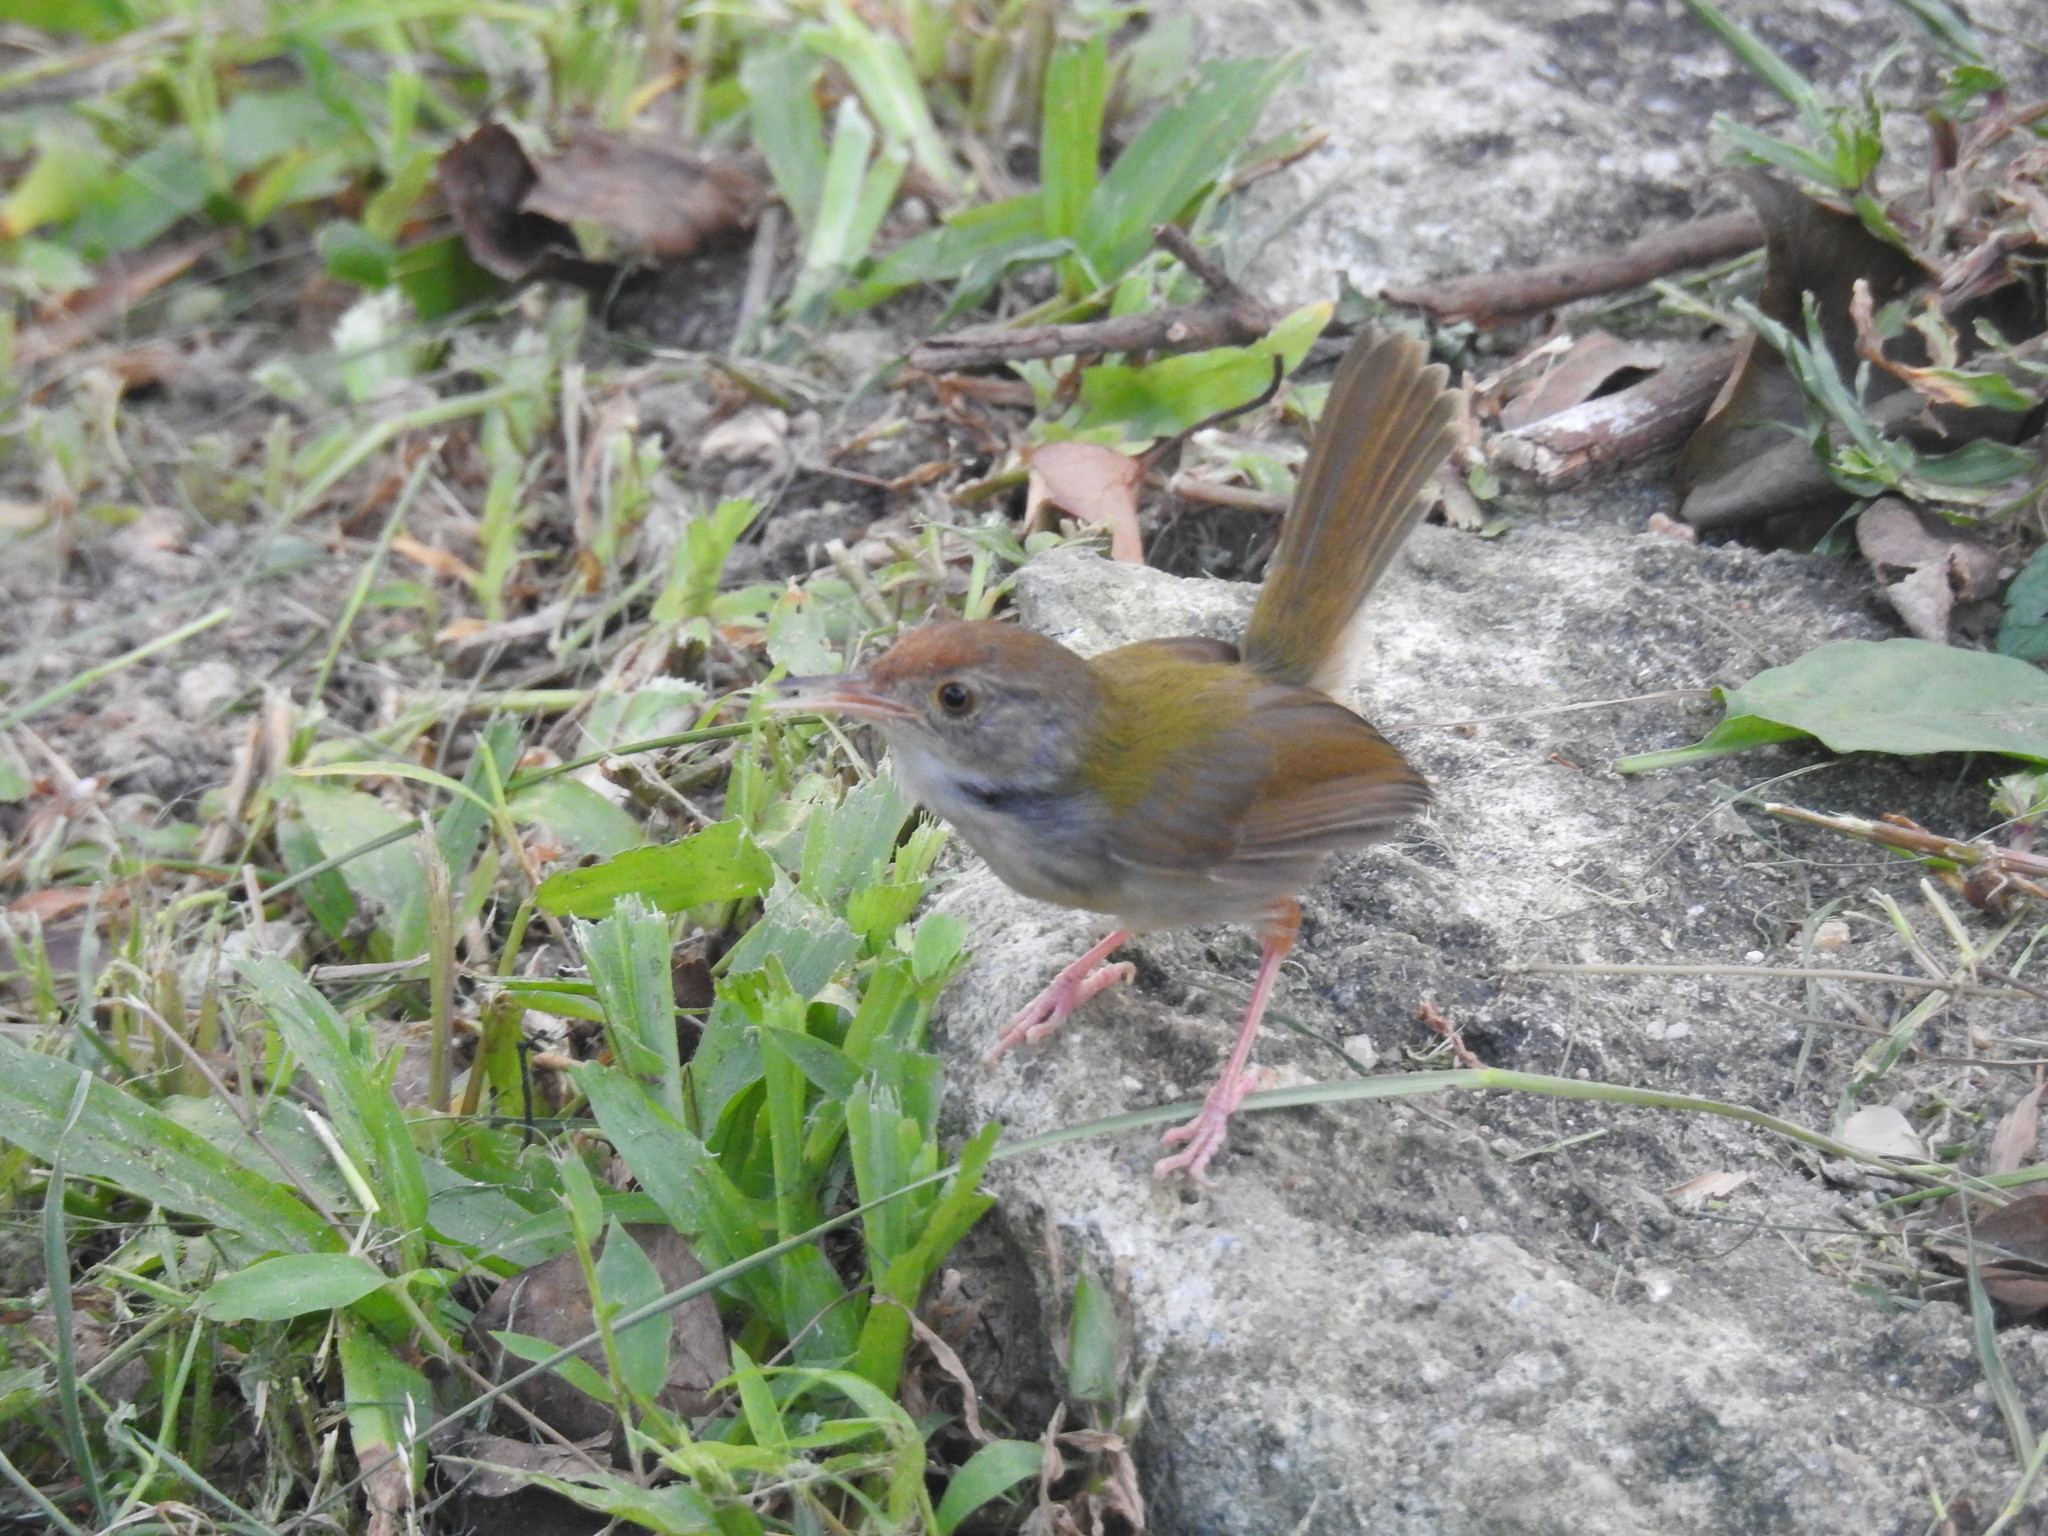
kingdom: Animalia
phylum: Chordata
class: Aves
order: Passeriformes
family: Cisticolidae
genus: Orthotomus
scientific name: Orthotomus sutorius
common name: Common tailorbird
